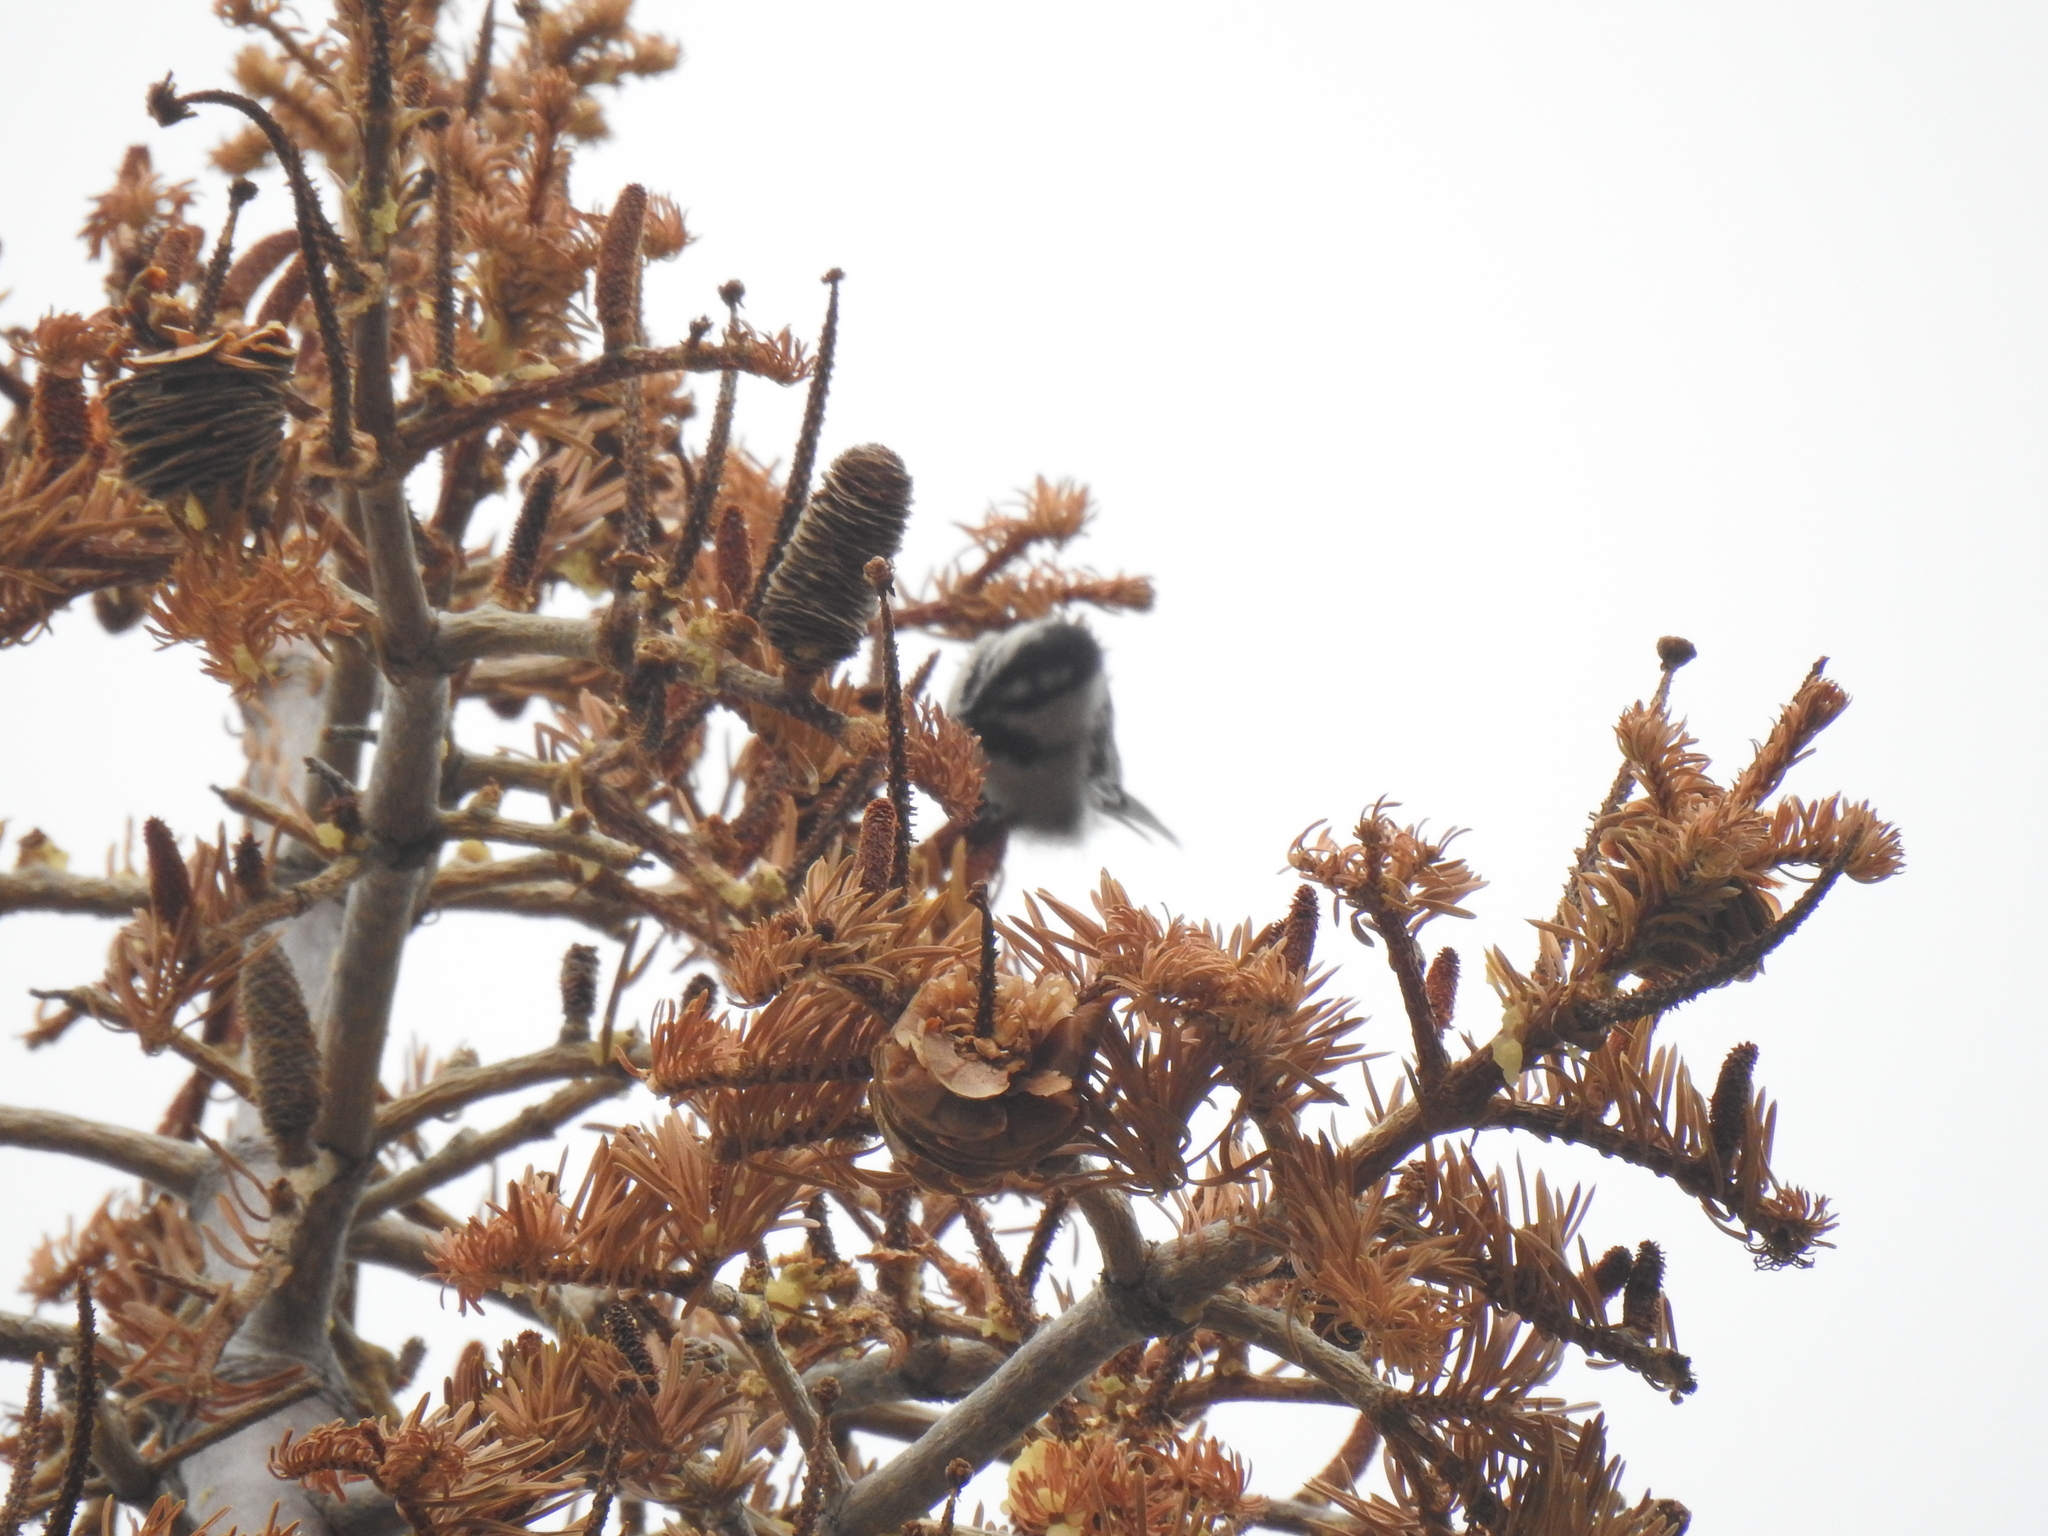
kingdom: Animalia
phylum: Chordata
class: Aves
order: Passeriformes
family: Paridae
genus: Poecile
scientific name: Poecile gambeli
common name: Mountain chickadee
